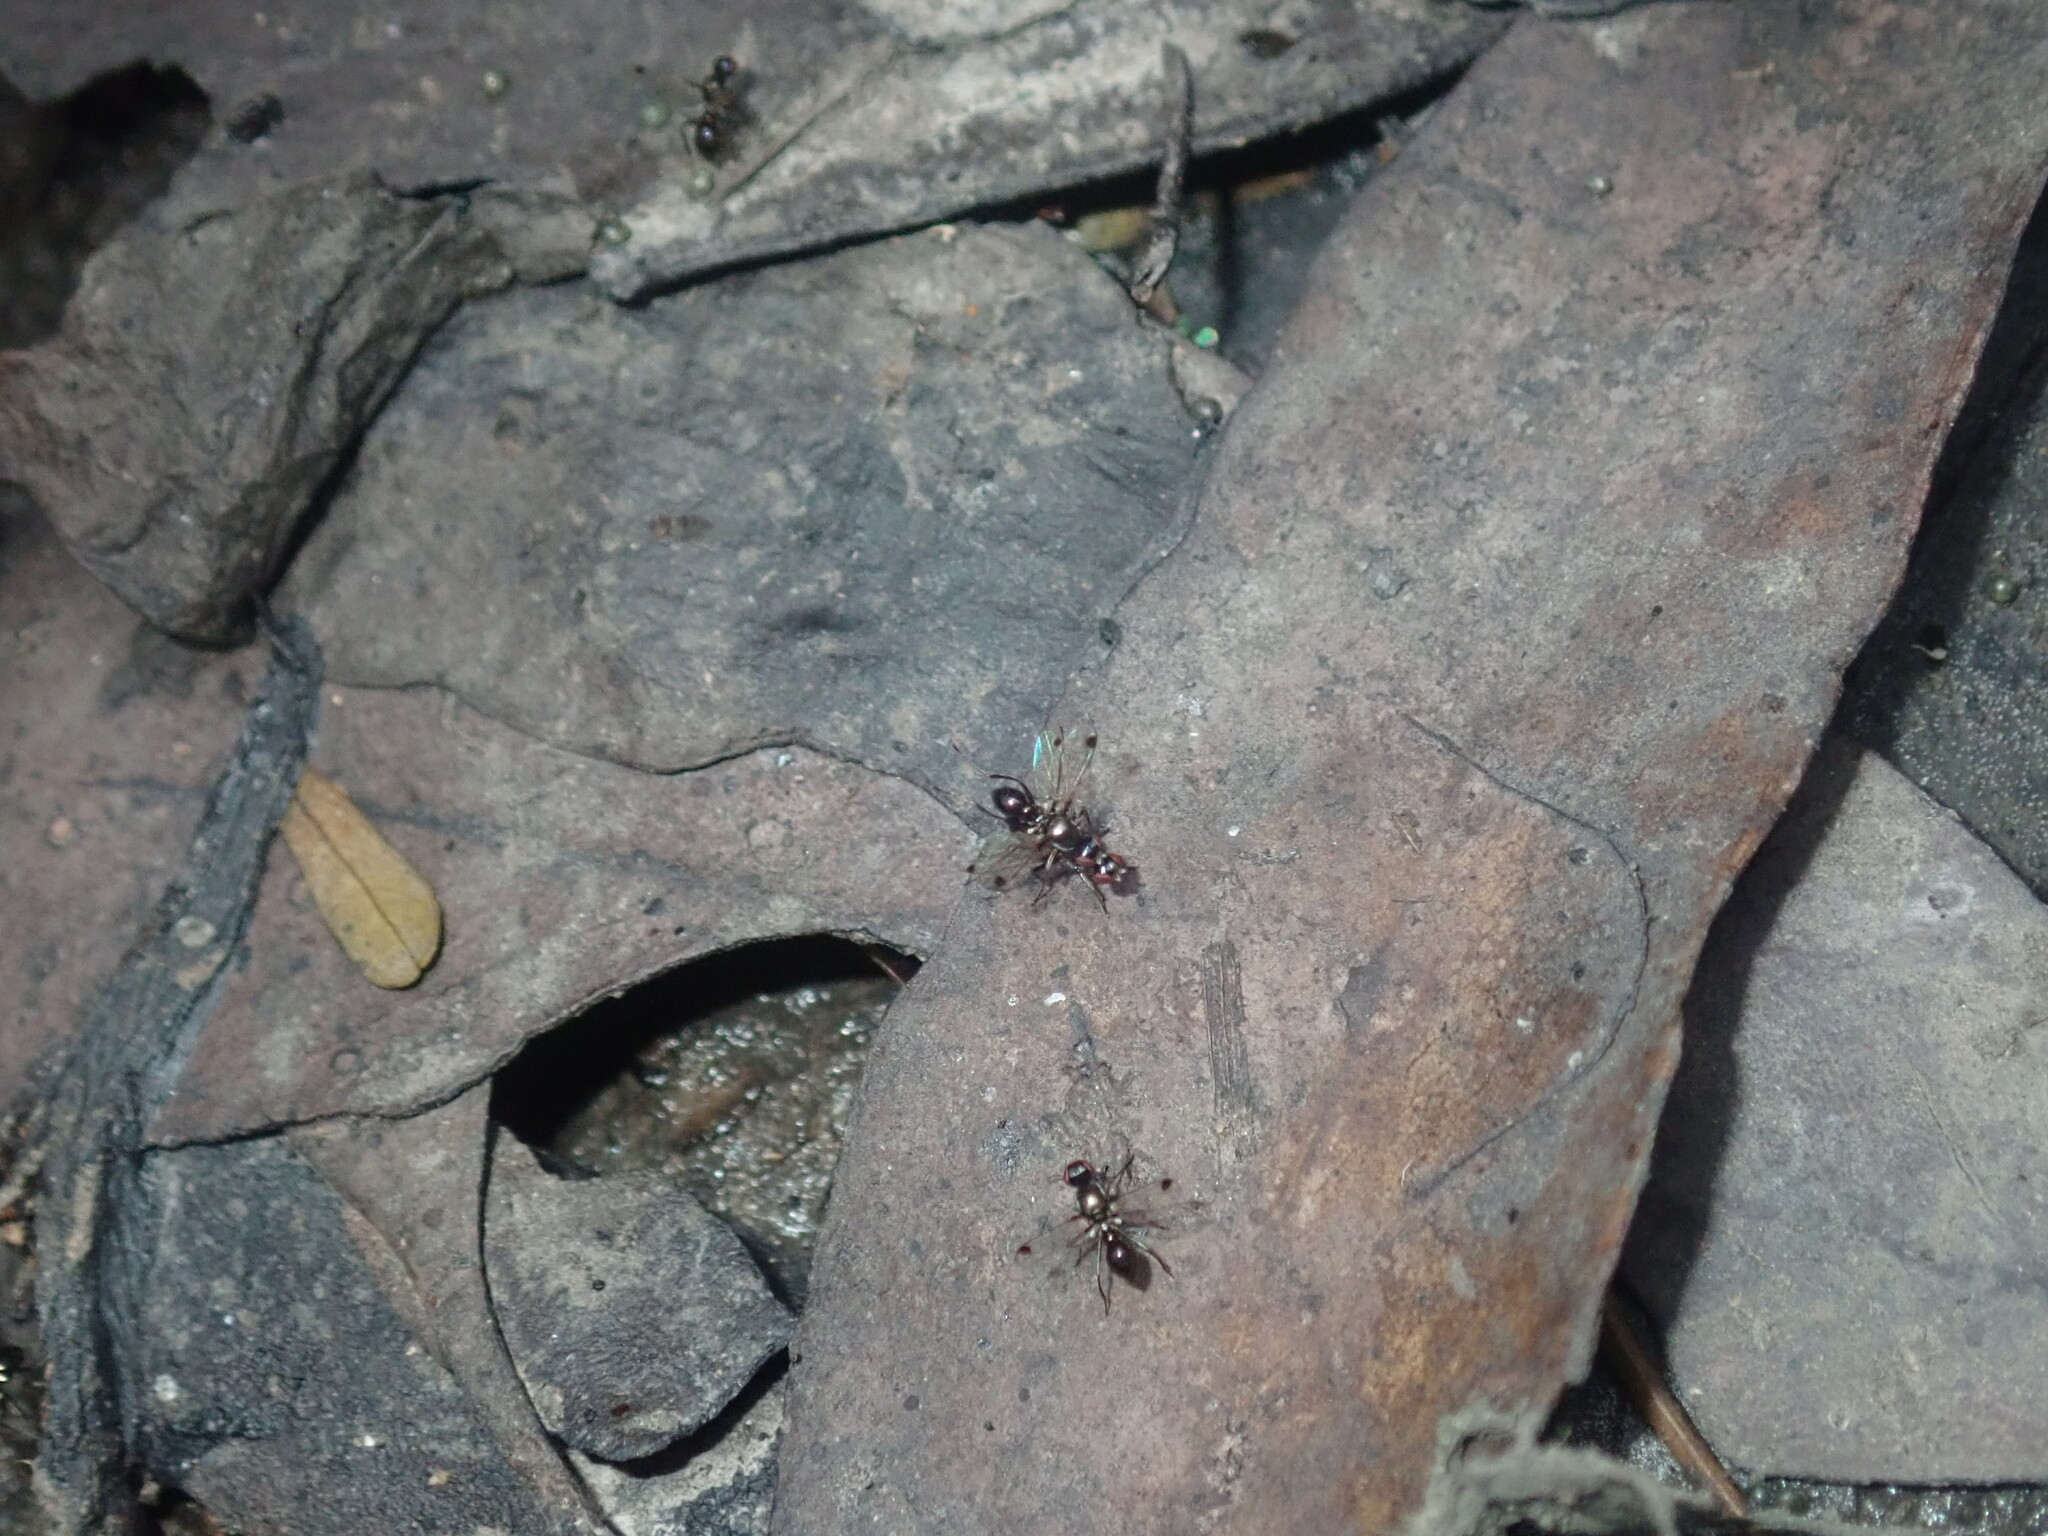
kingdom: Animalia
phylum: Arthropoda
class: Insecta
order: Diptera
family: Sepsidae
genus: Parapalaeosepsis
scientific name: Parapalaeosepsis plebeia
